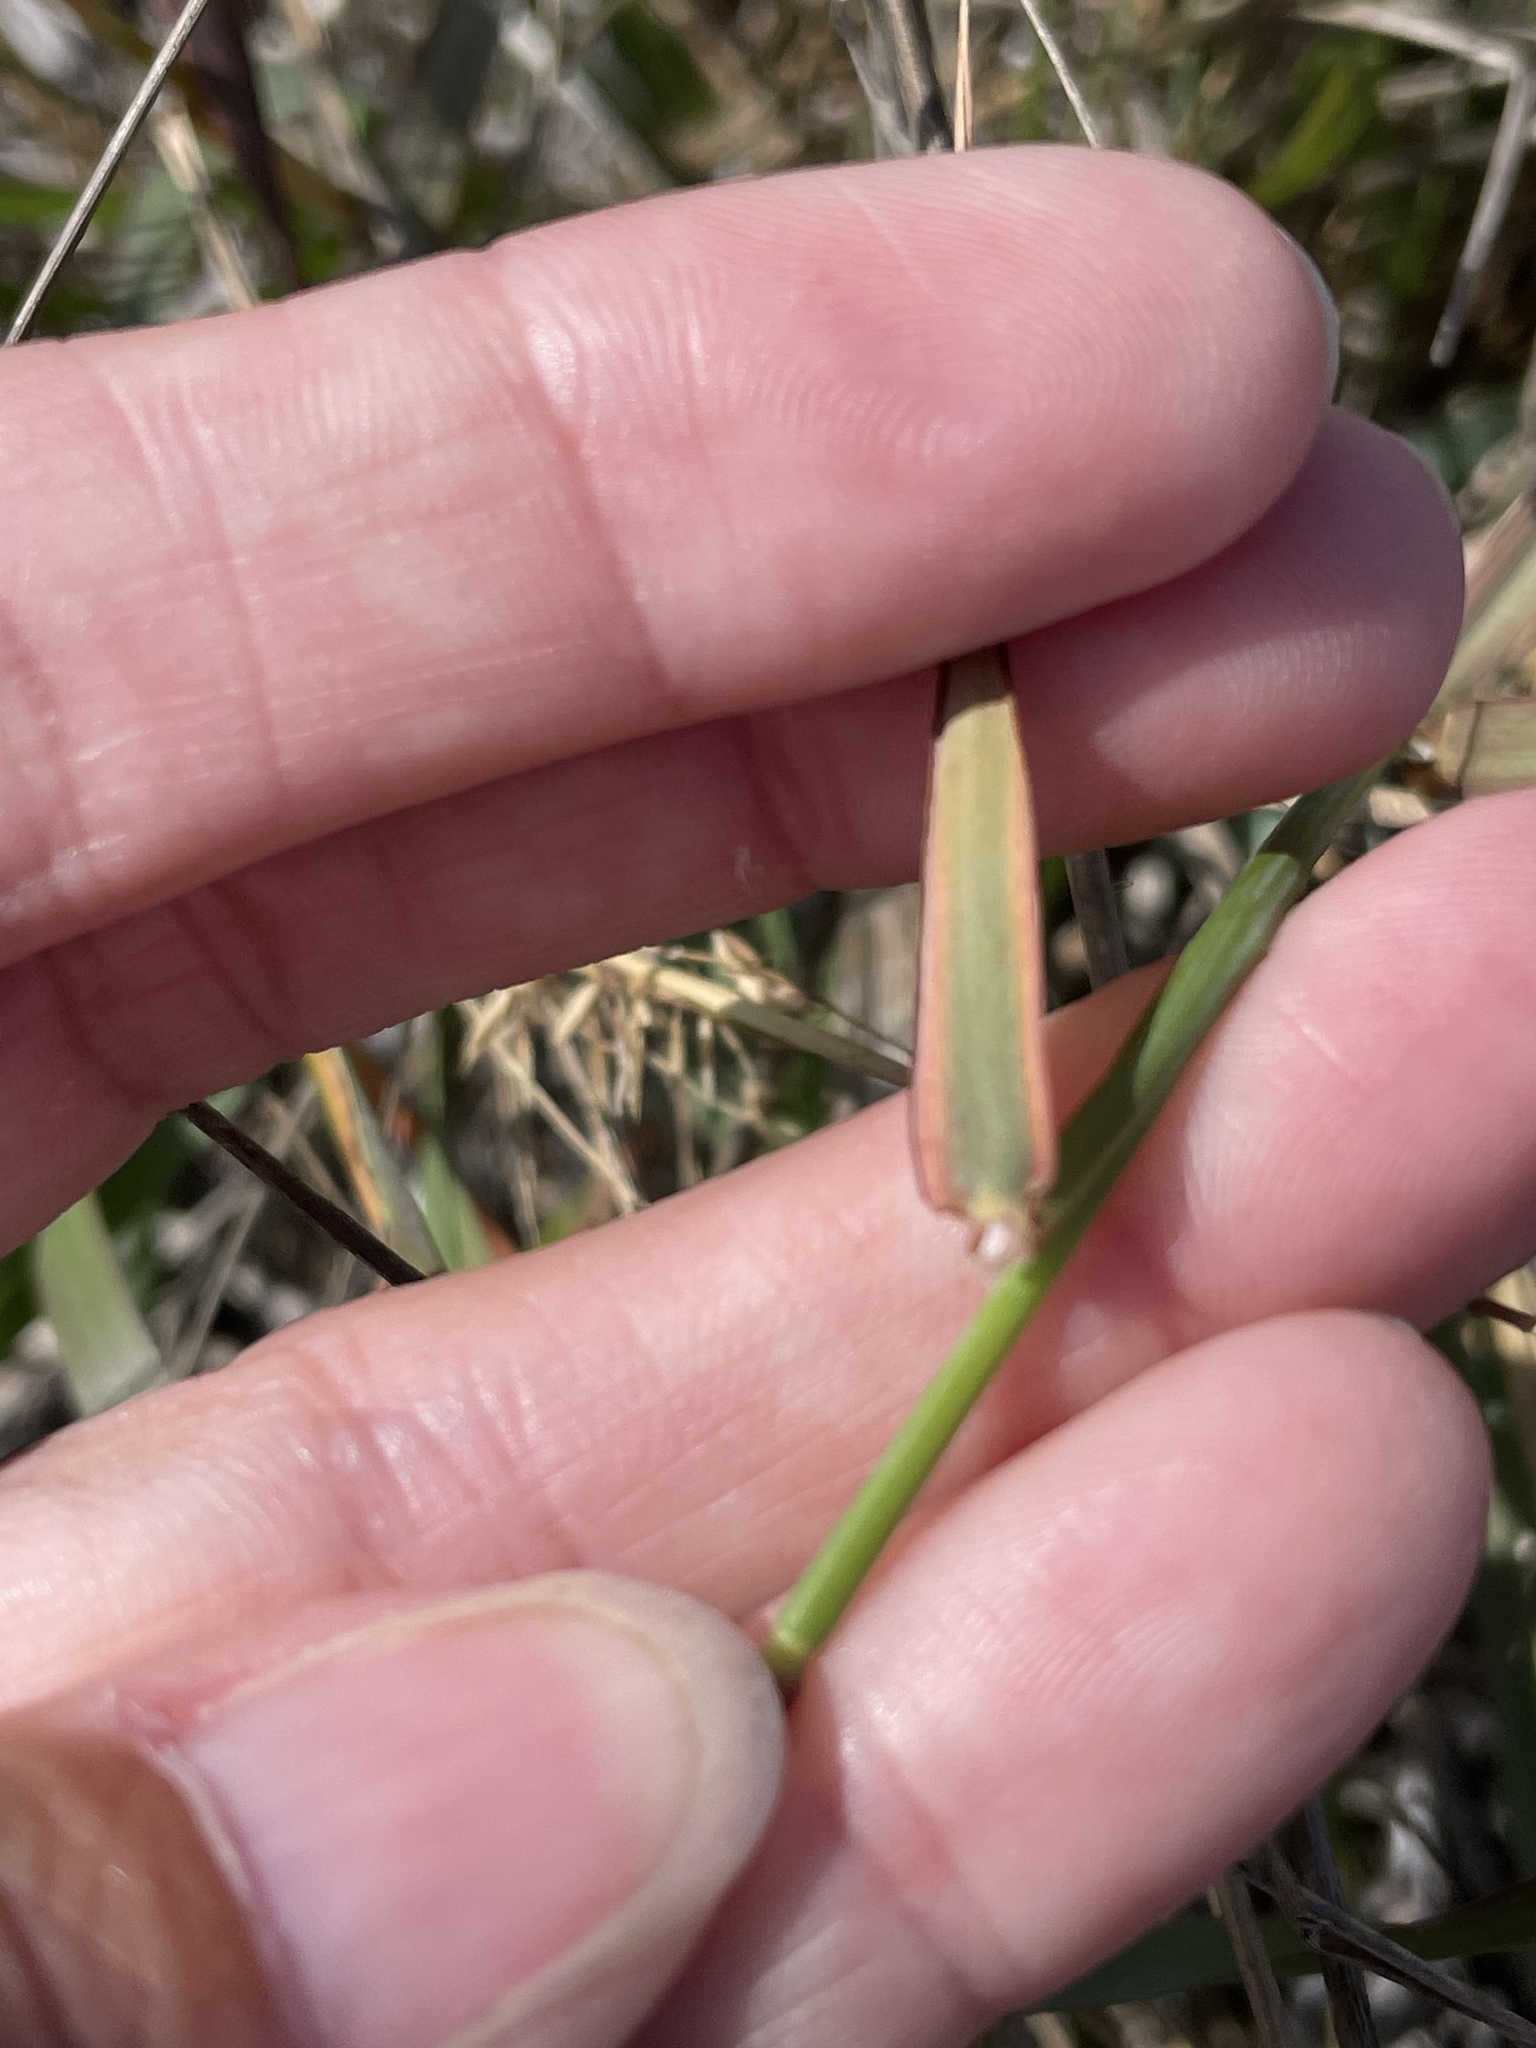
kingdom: Plantae
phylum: Tracheophyta
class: Liliopsida
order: Poales
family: Poaceae
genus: Ehrharta
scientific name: Ehrharta calycina
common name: Perennial veldtgrass
